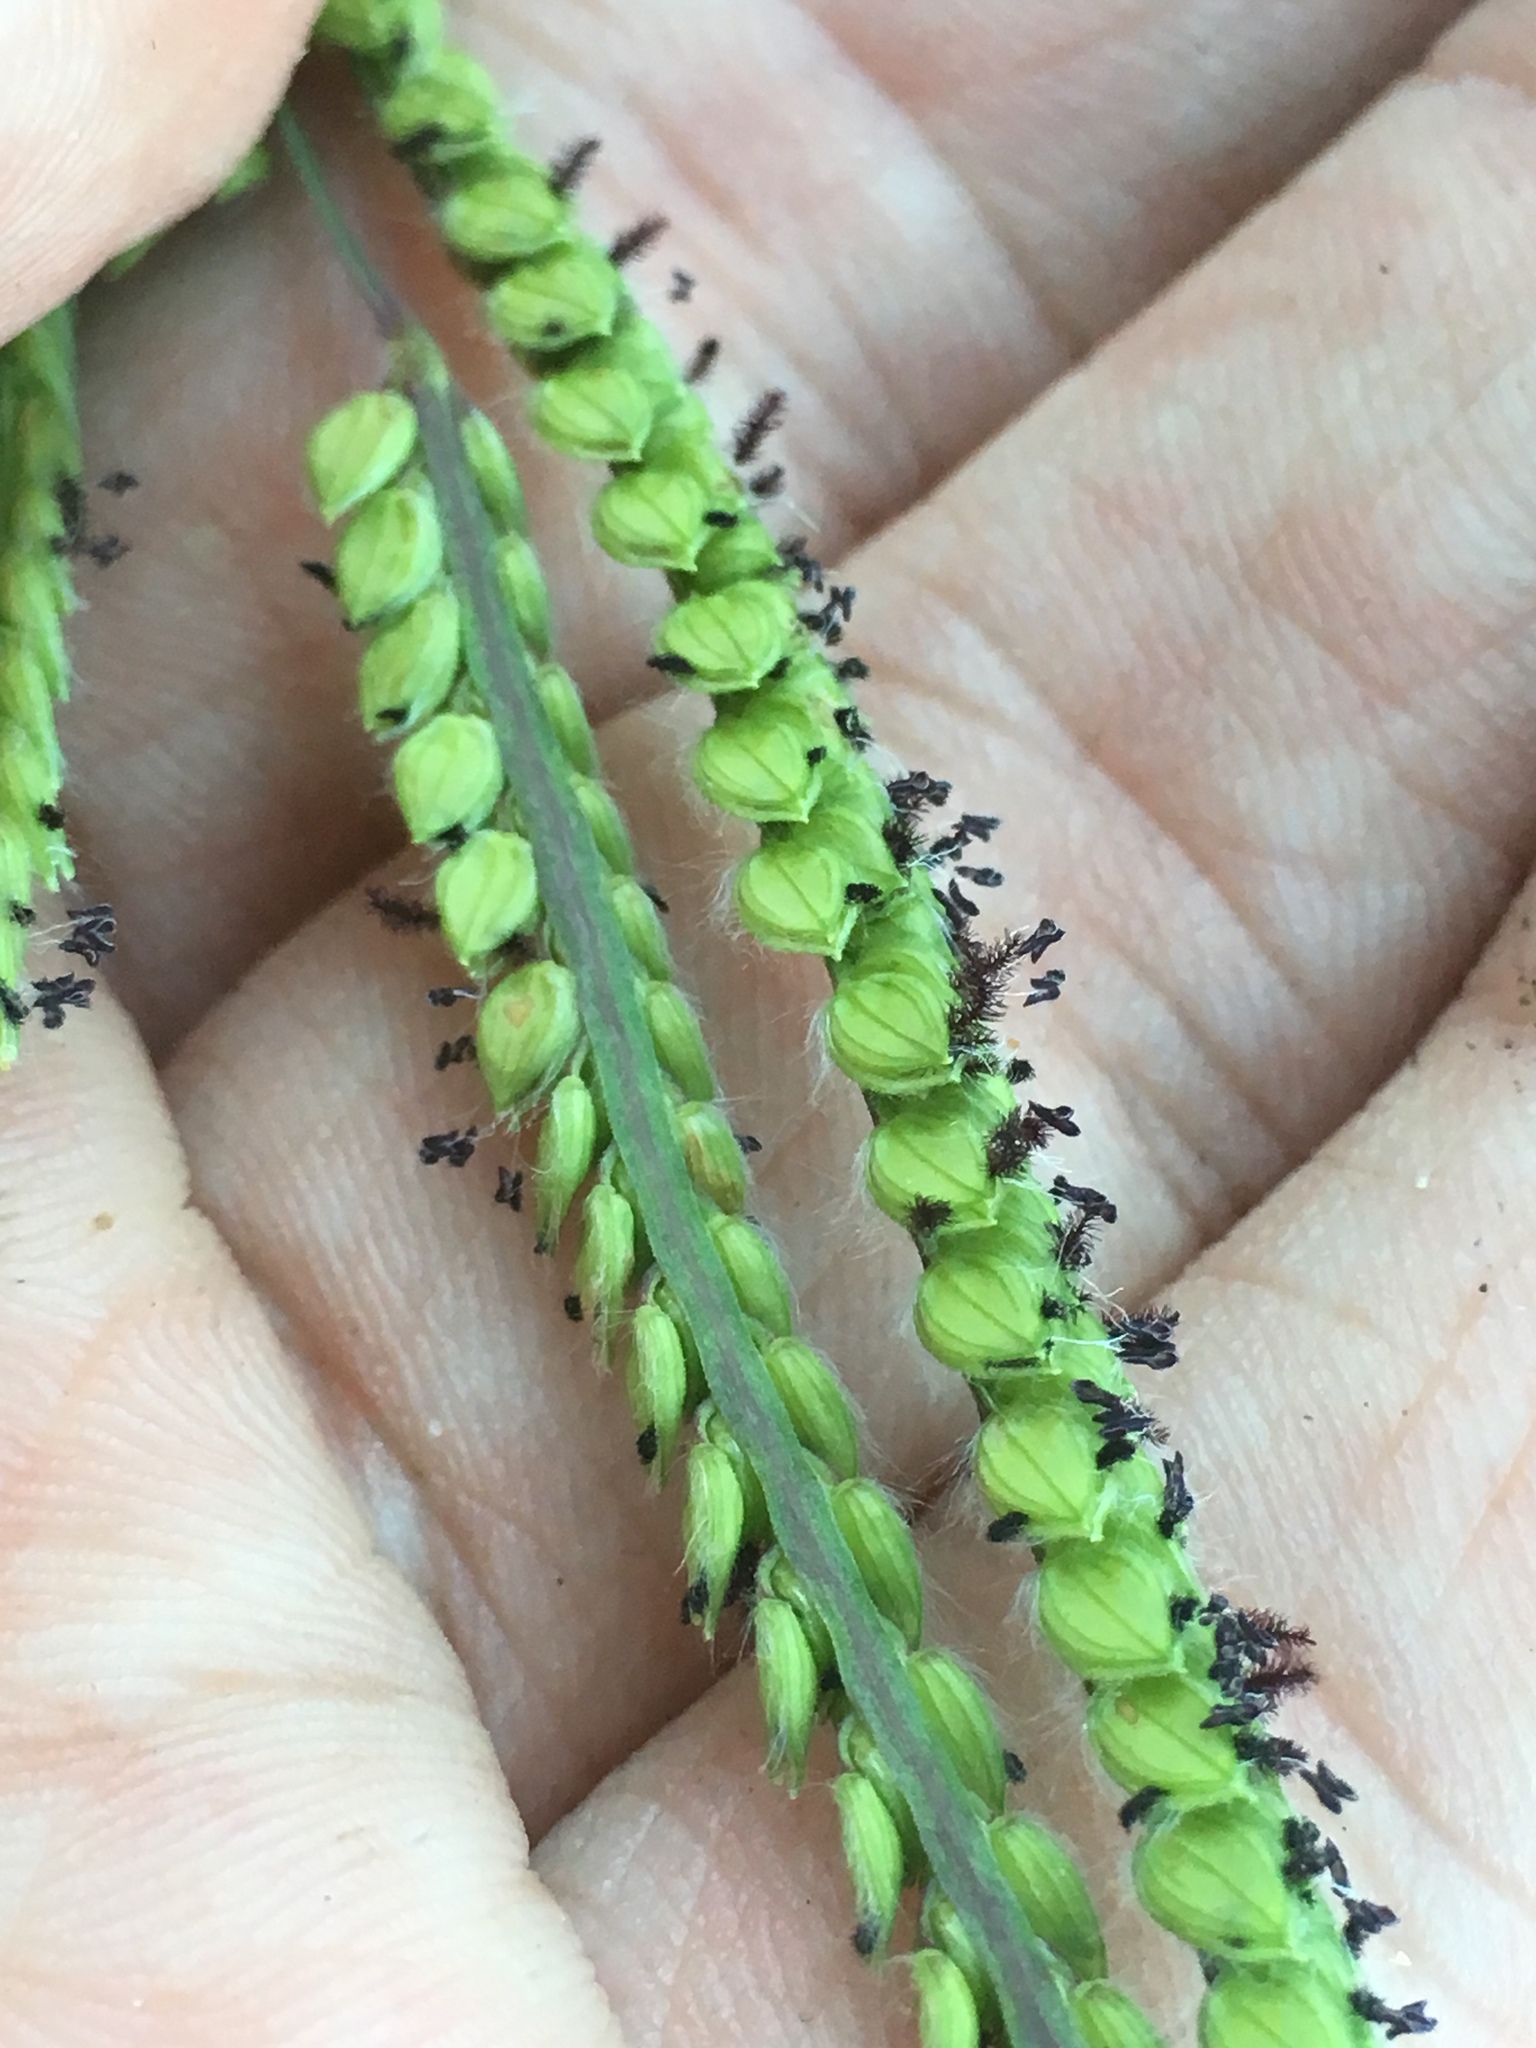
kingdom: Plantae
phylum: Tracheophyta
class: Liliopsida
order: Poales
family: Poaceae
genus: Paspalum
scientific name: Paspalum dilatatum
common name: Dallisgrass
